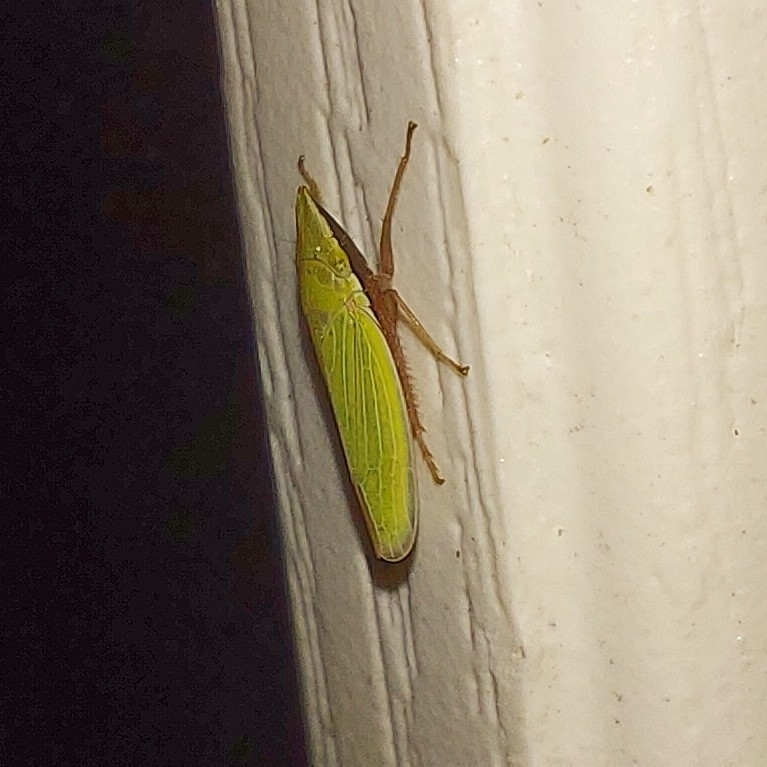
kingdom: Animalia
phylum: Arthropoda
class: Insecta
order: Hemiptera
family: Cicadellidae
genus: Draeculacephala
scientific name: Draeculacephala antica
